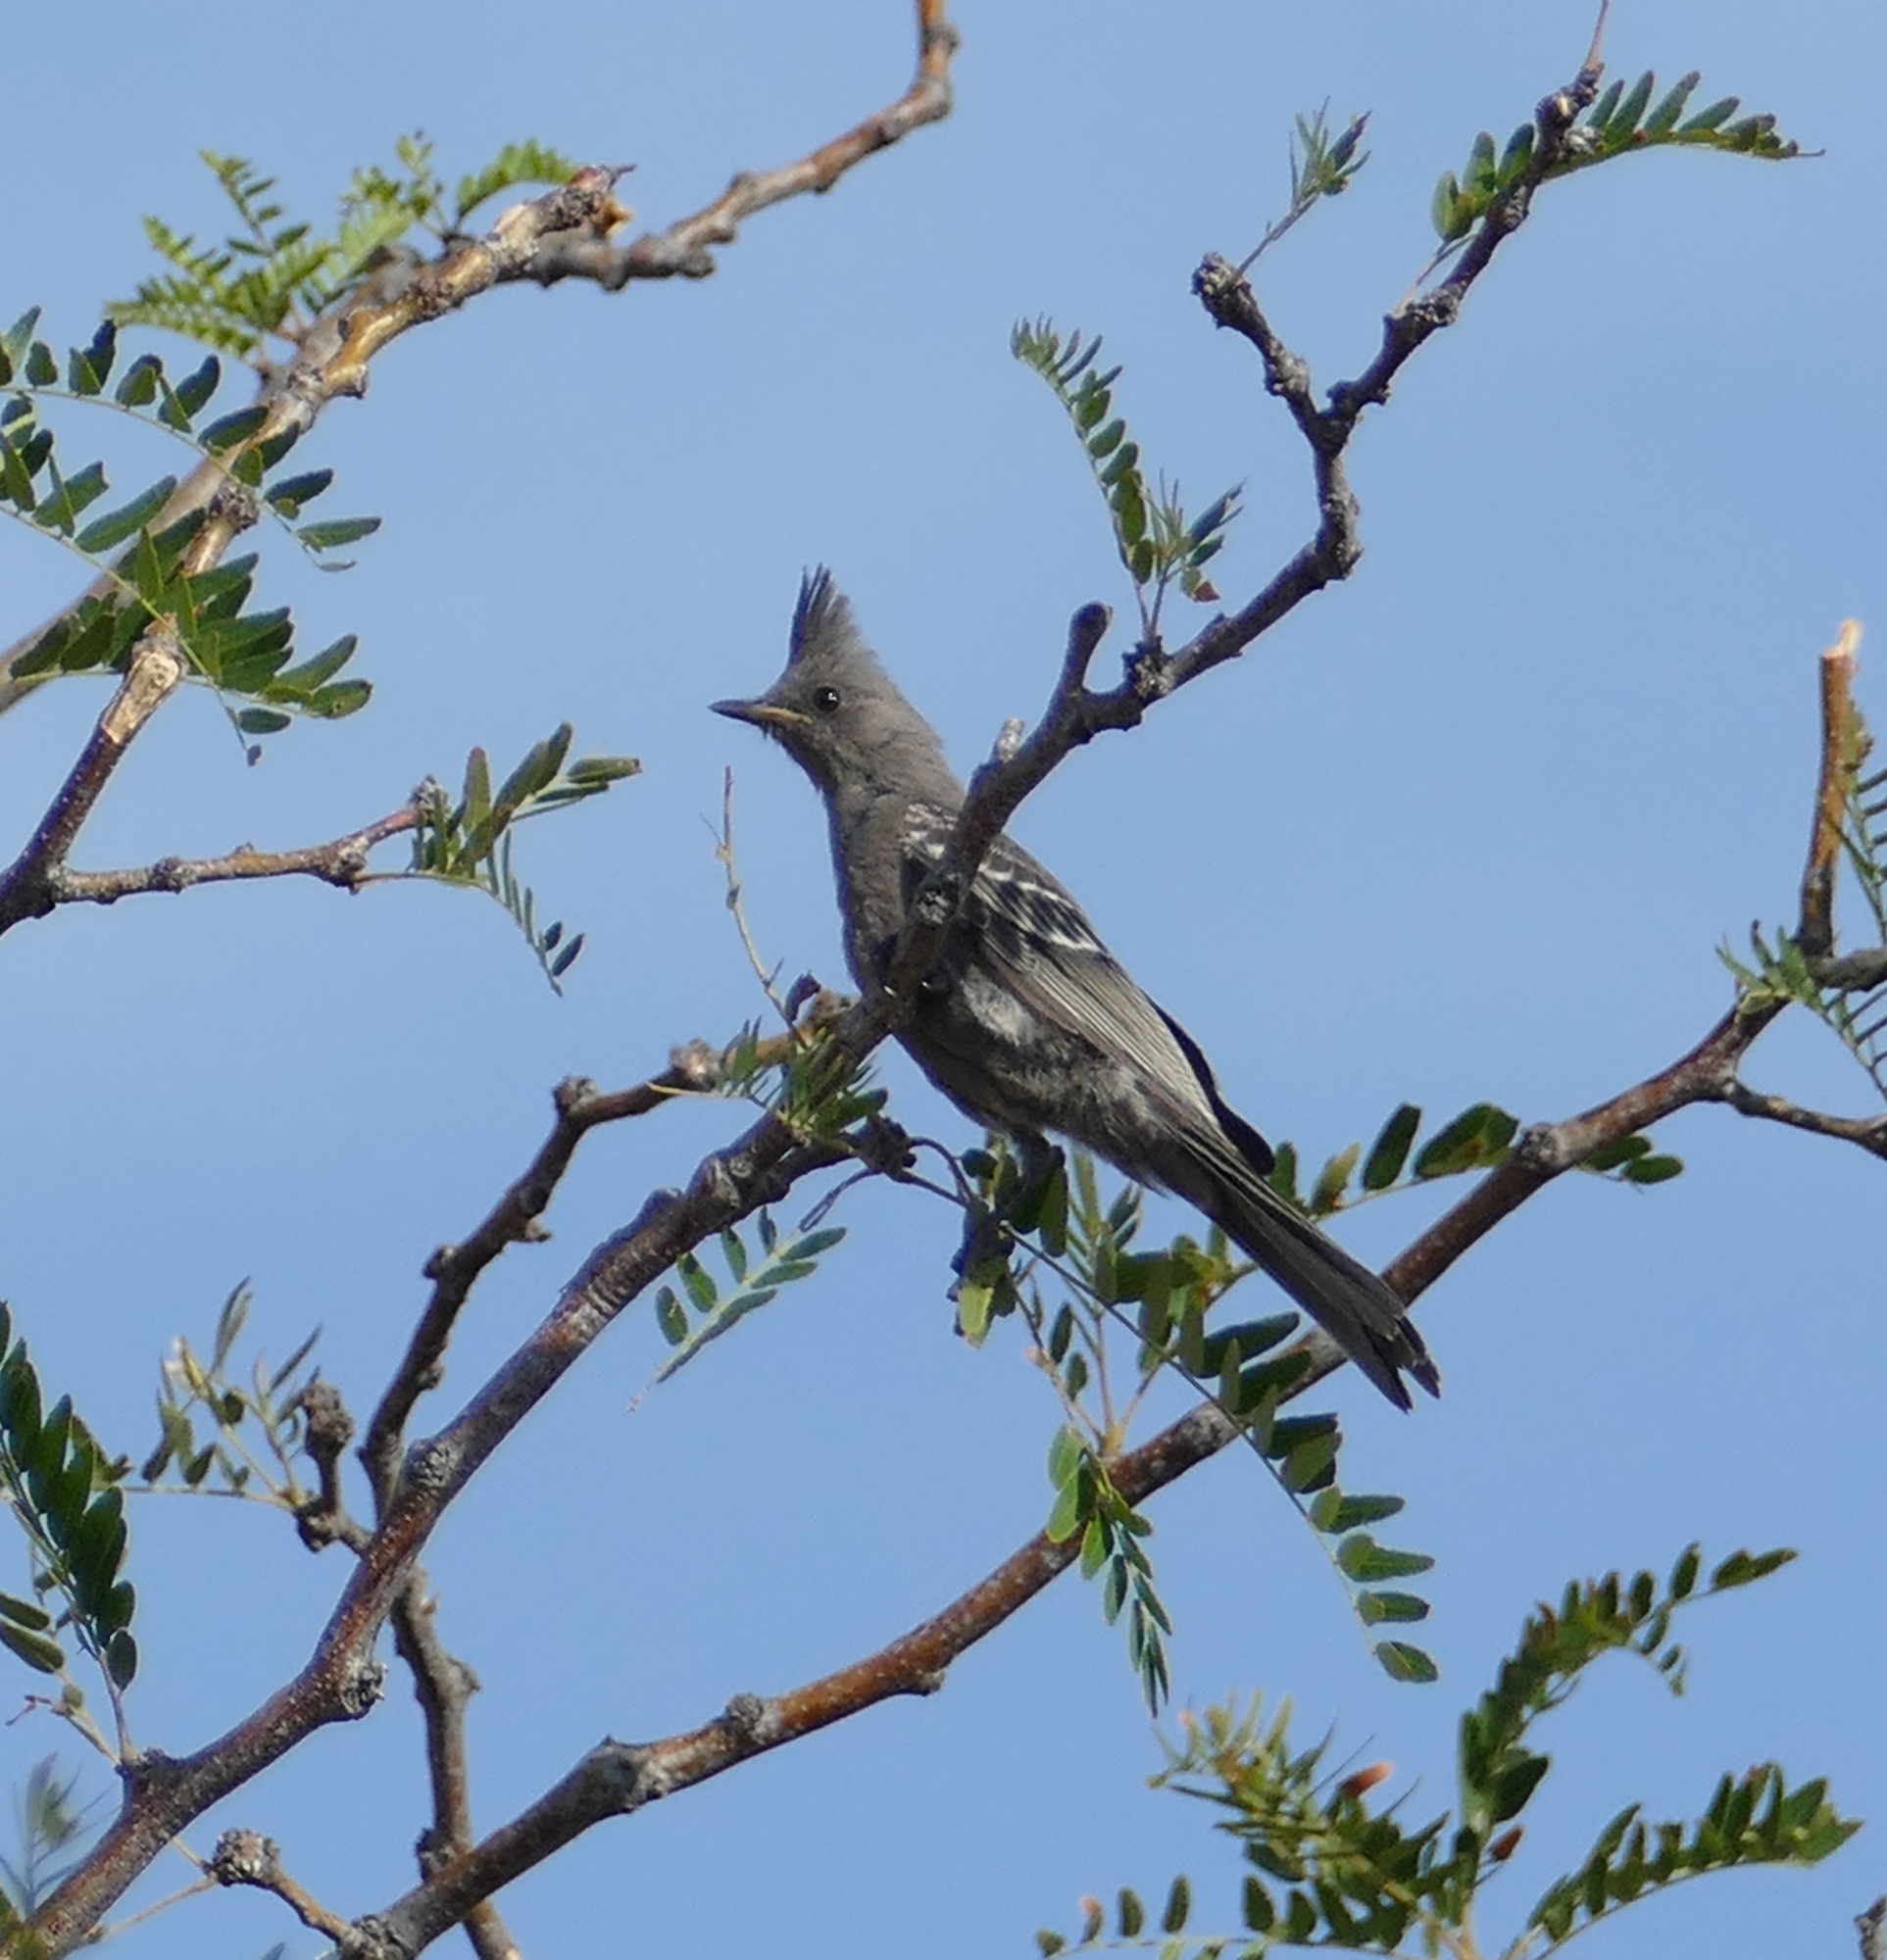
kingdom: Animalia
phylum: Chordata
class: Aves
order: Passeriformes
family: Ptilogonatidae
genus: Phainopepla
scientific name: Phainopepla nitens
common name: Phainopepla
